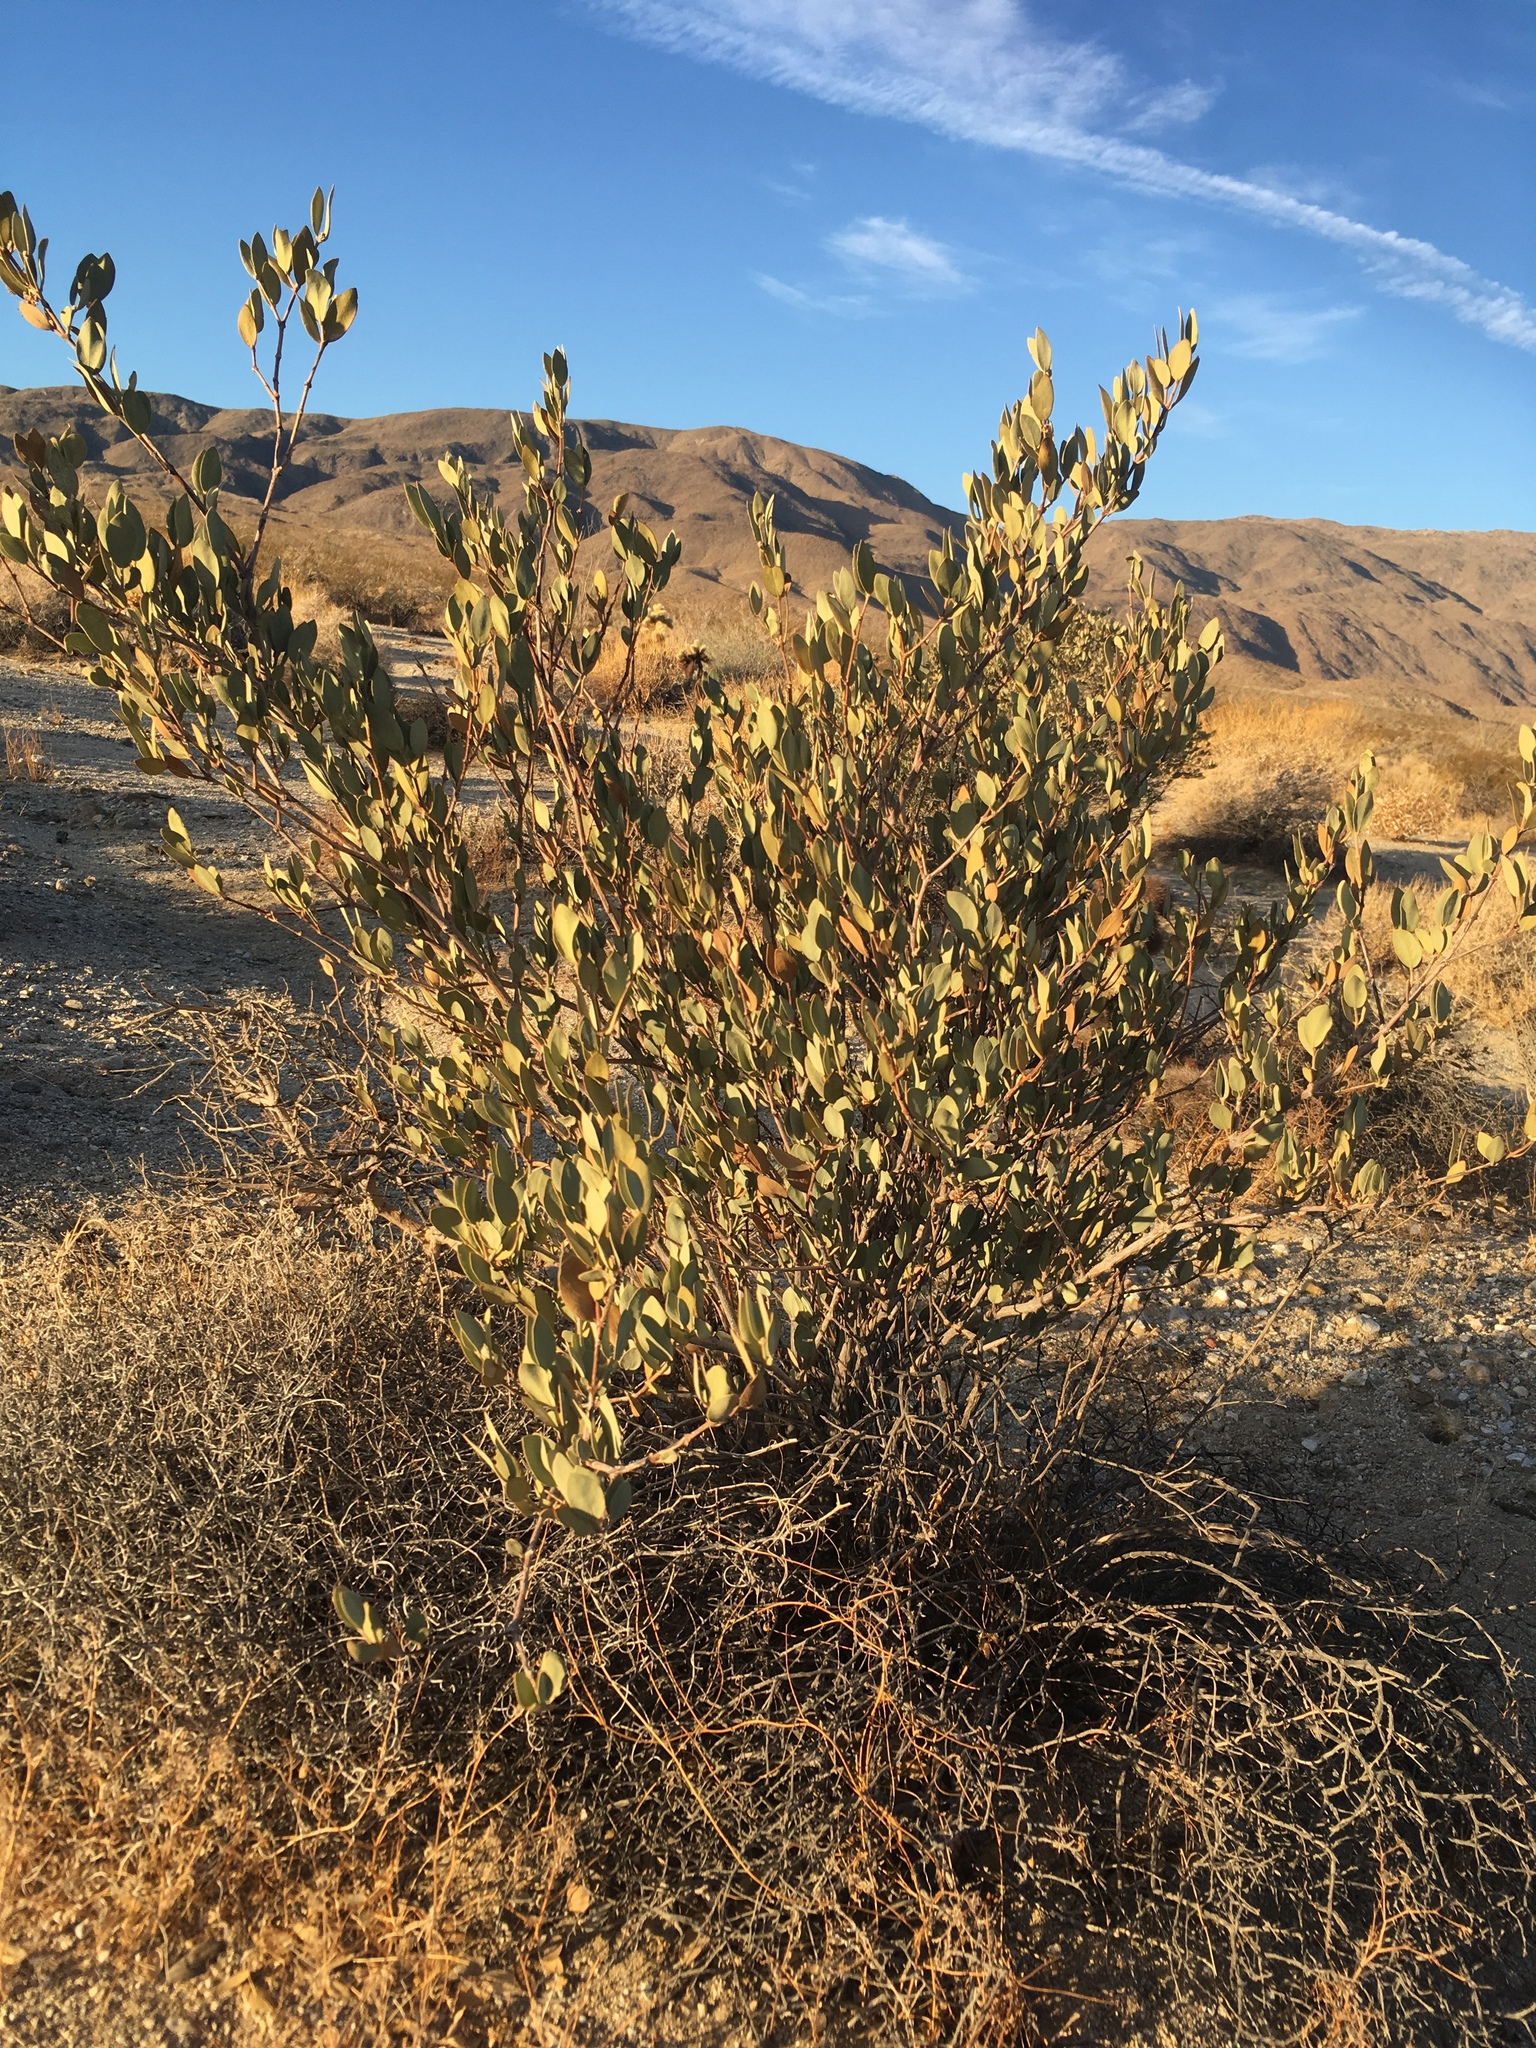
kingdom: Plantae
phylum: Tracheophyta
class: Magnoliopsida
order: Caryophyllales
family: Simmondsiaceae
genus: Simmondsia
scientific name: Simmondsia chinensis
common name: Jojoba
